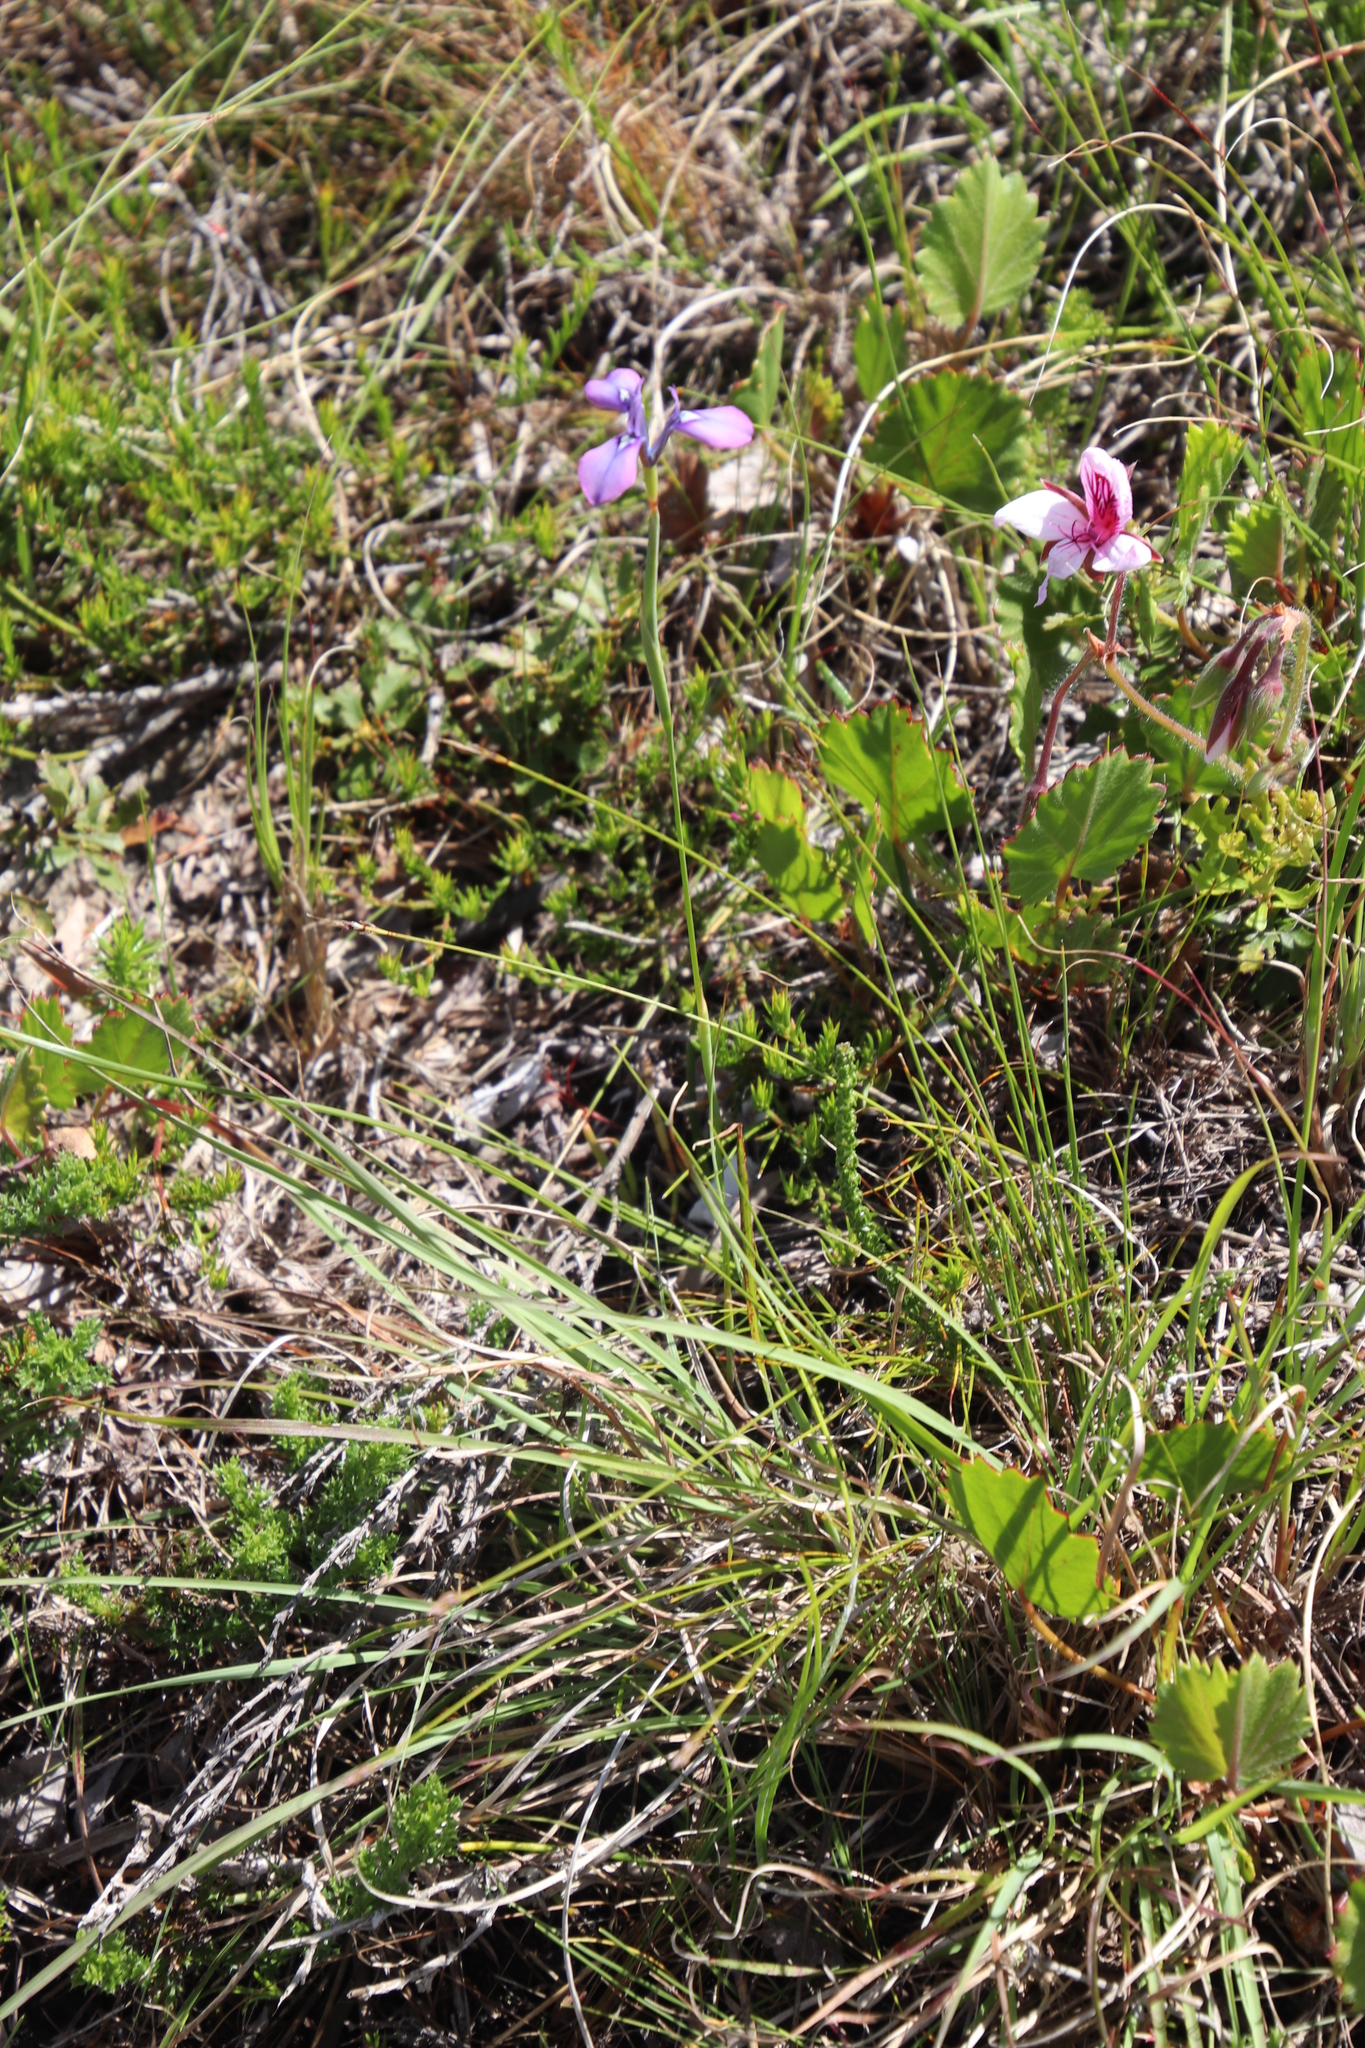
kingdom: Plantae
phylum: Tracheophyta
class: Liliopsida
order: Asparagales
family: Iridaceae
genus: Moraea
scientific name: Moraea tripetala
